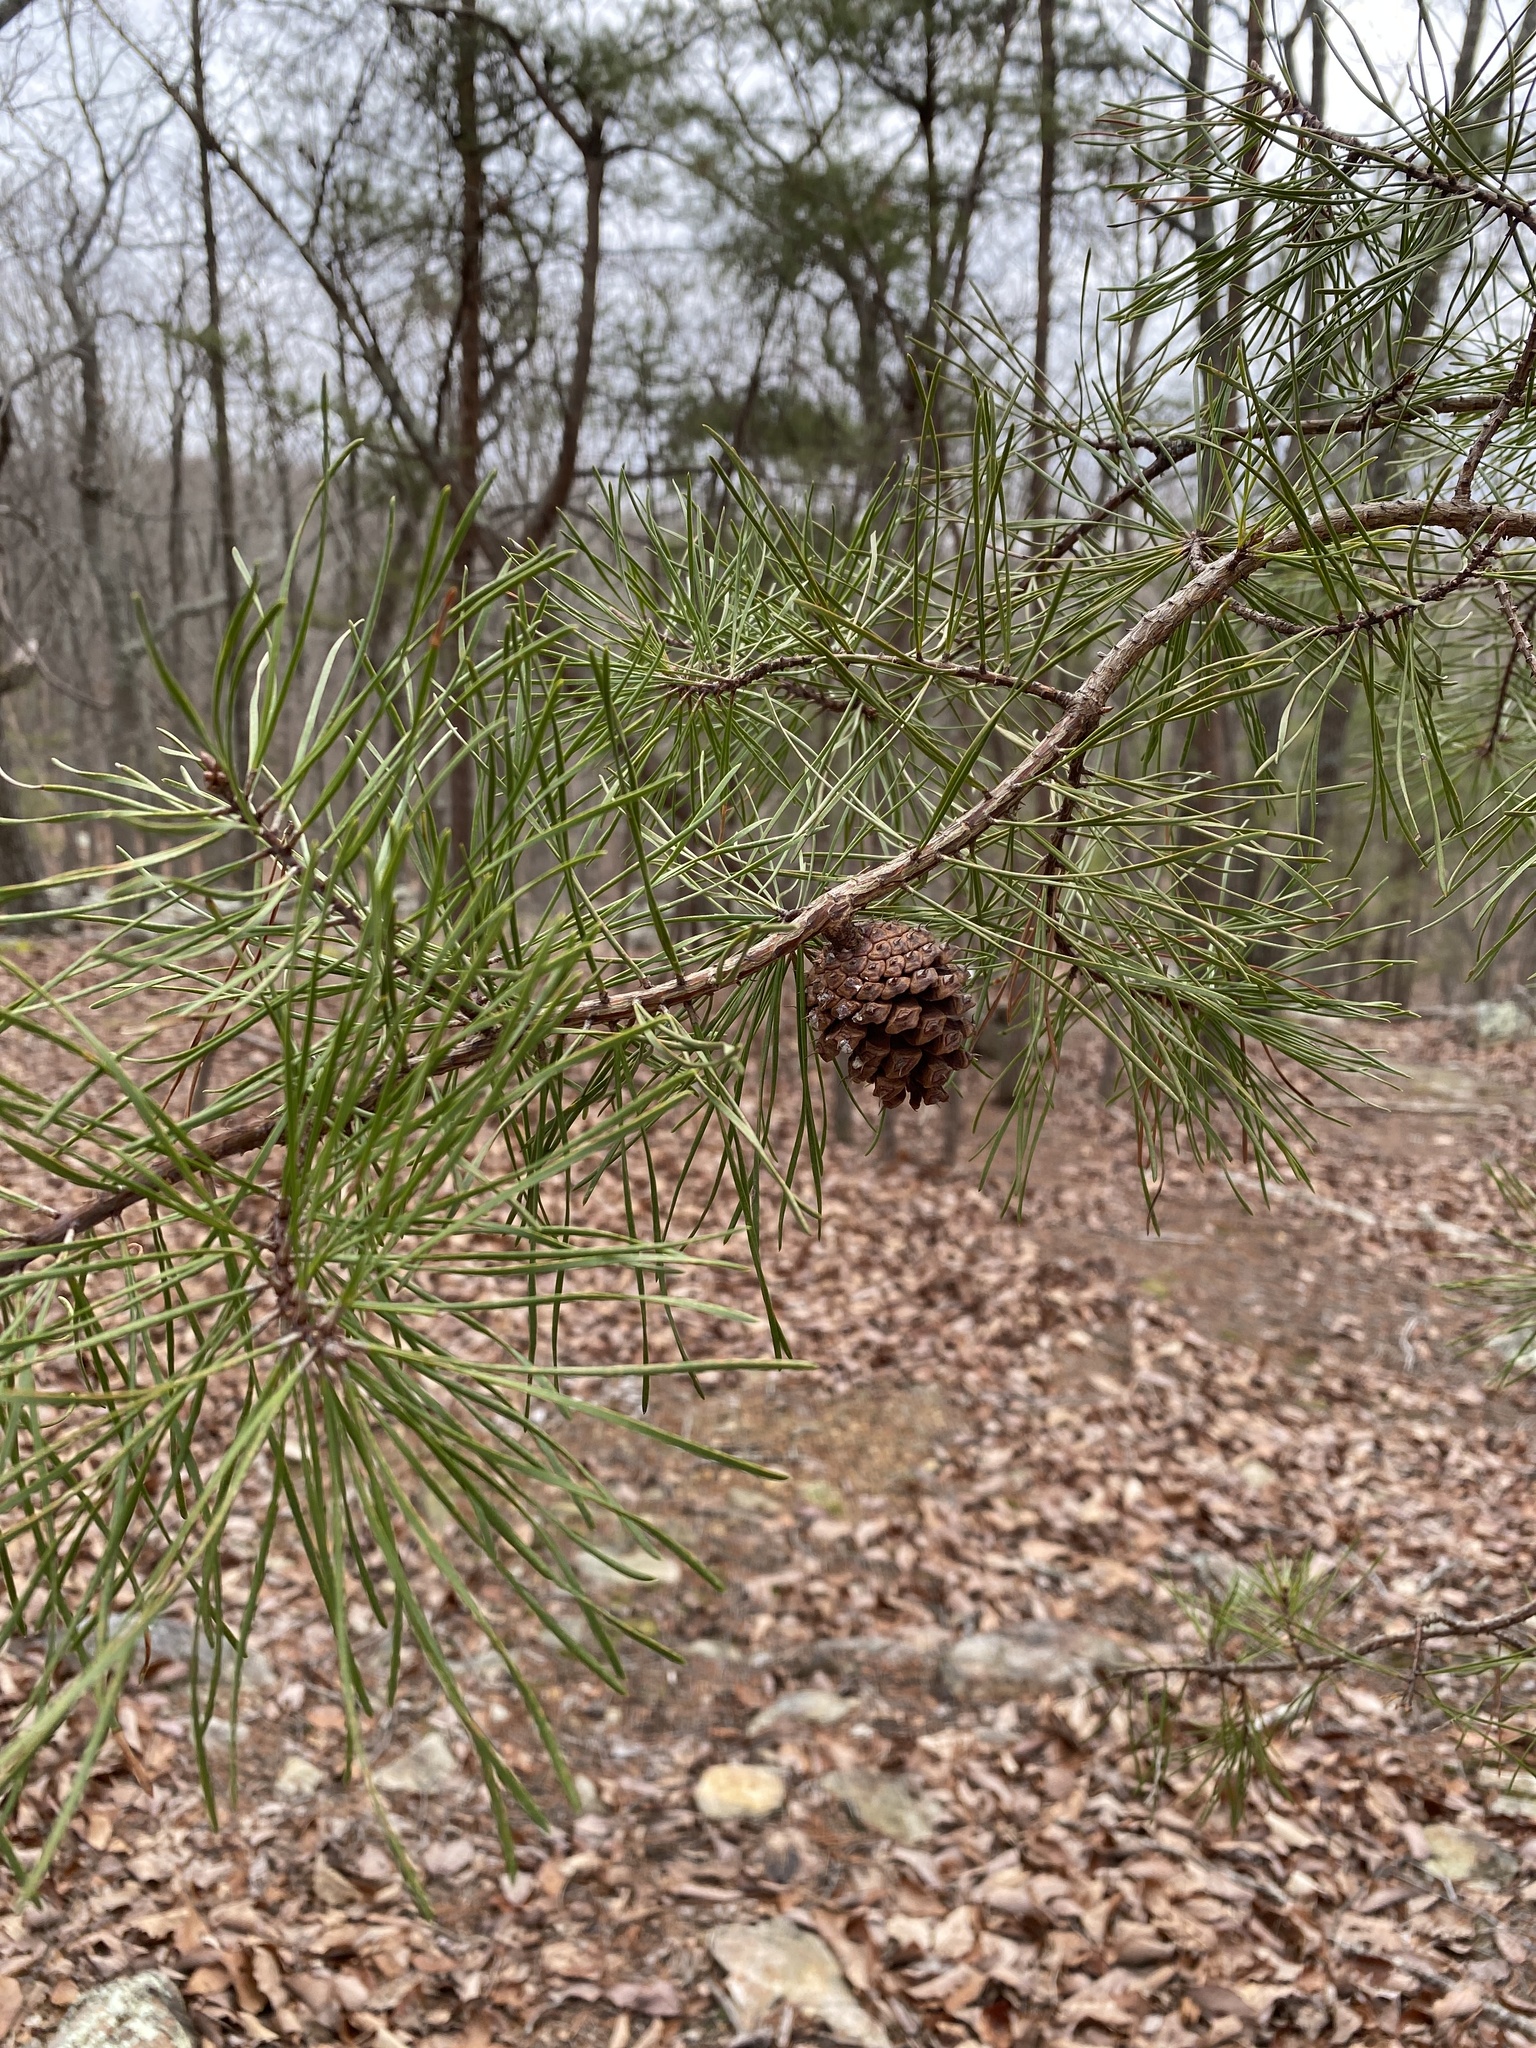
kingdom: Plantae
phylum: Tracheophyta
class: Pinopsida
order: Pinales
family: Pinaceae
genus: Pinus
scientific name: Pinus virginiana
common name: Scrub pine
